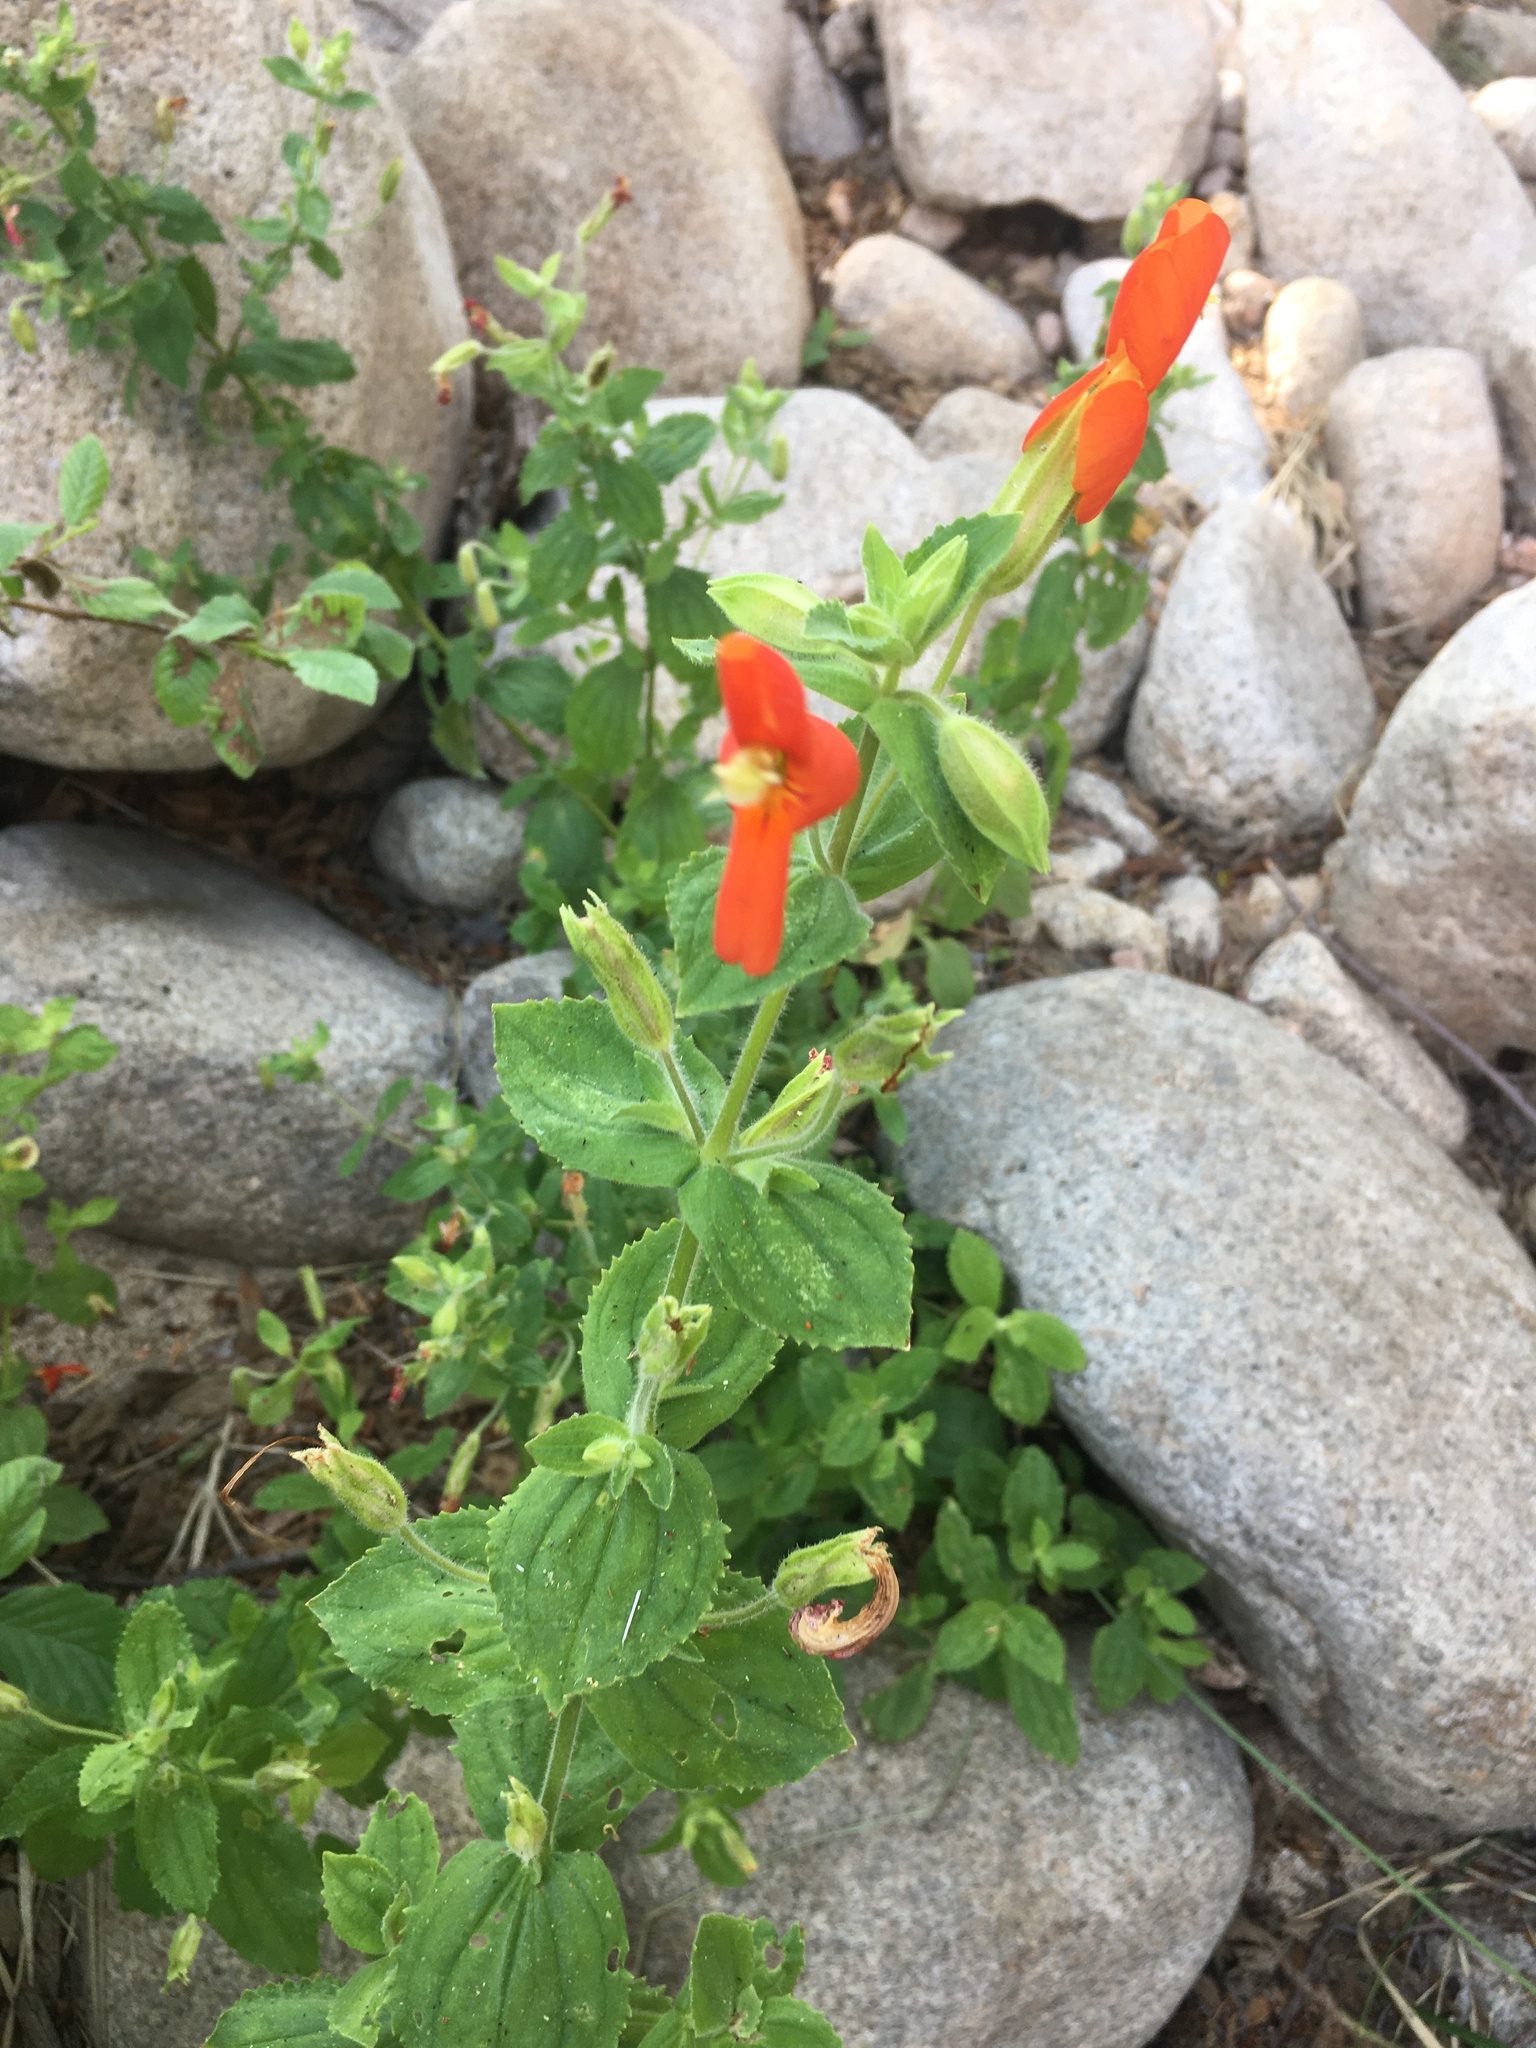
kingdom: Plantae
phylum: Tracheophyta
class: Magnoliopsida
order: Lamiales
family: Phrymaceae
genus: Erythranthe
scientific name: Erythranthe cardinalis
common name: Scarlet monkey-flower
